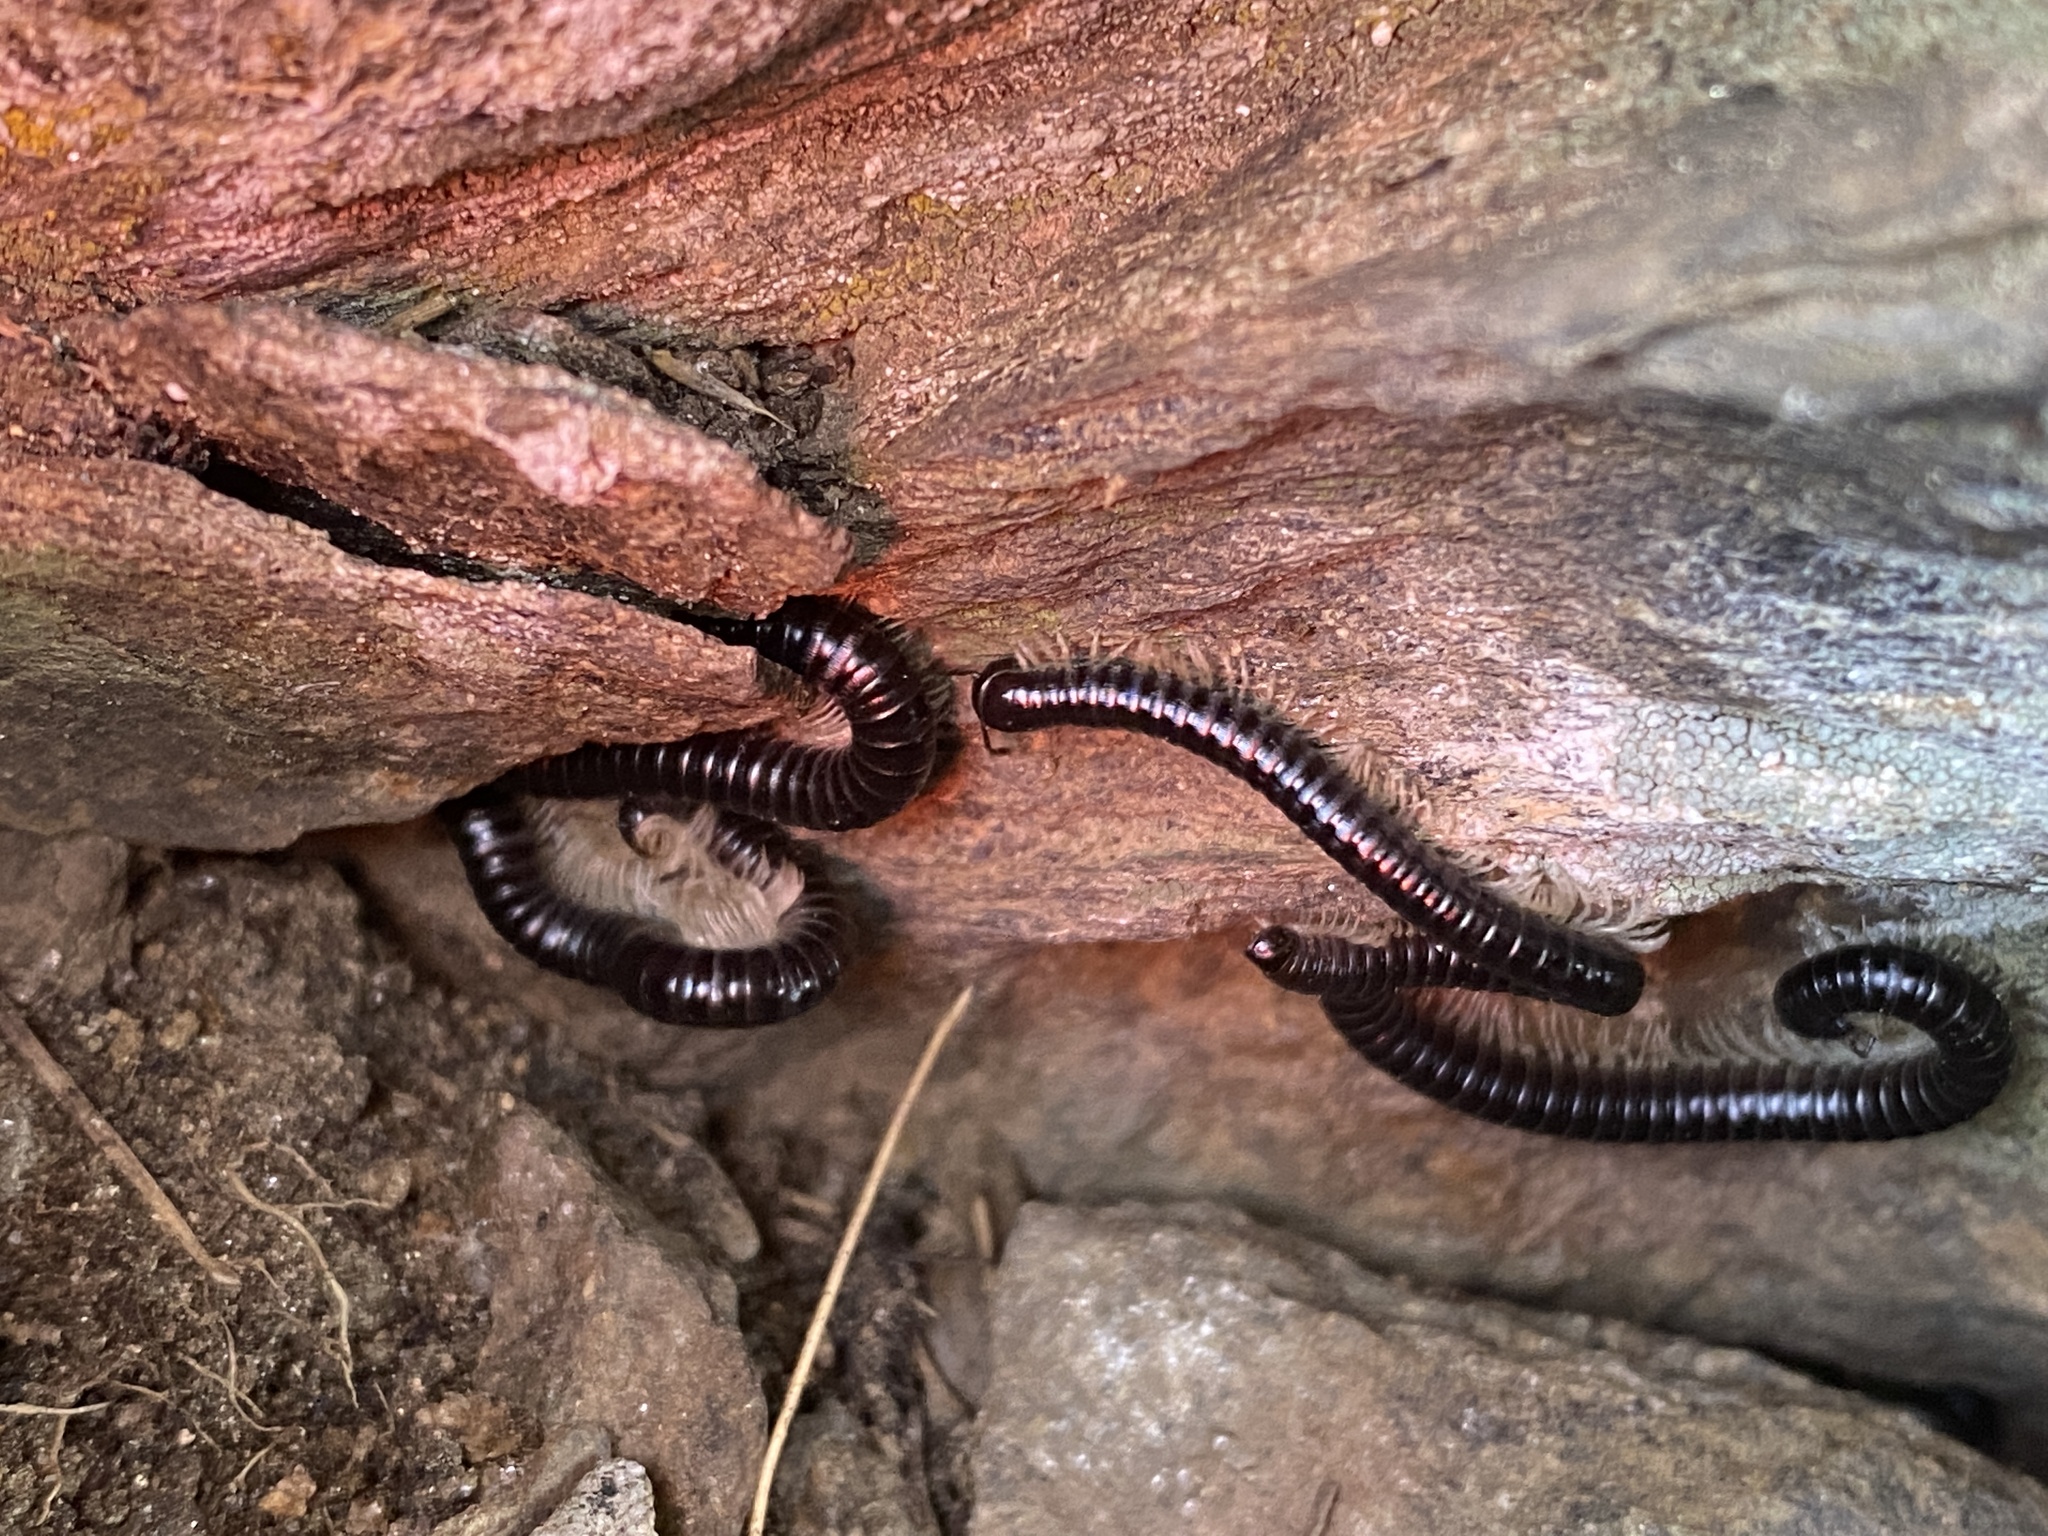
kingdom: Animalia
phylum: Arthropoda
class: Diplopoda
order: Julida
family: Julidae
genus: Tachypodoiulus
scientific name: Tachypodoiulus niger
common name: White-legged snake millipede
